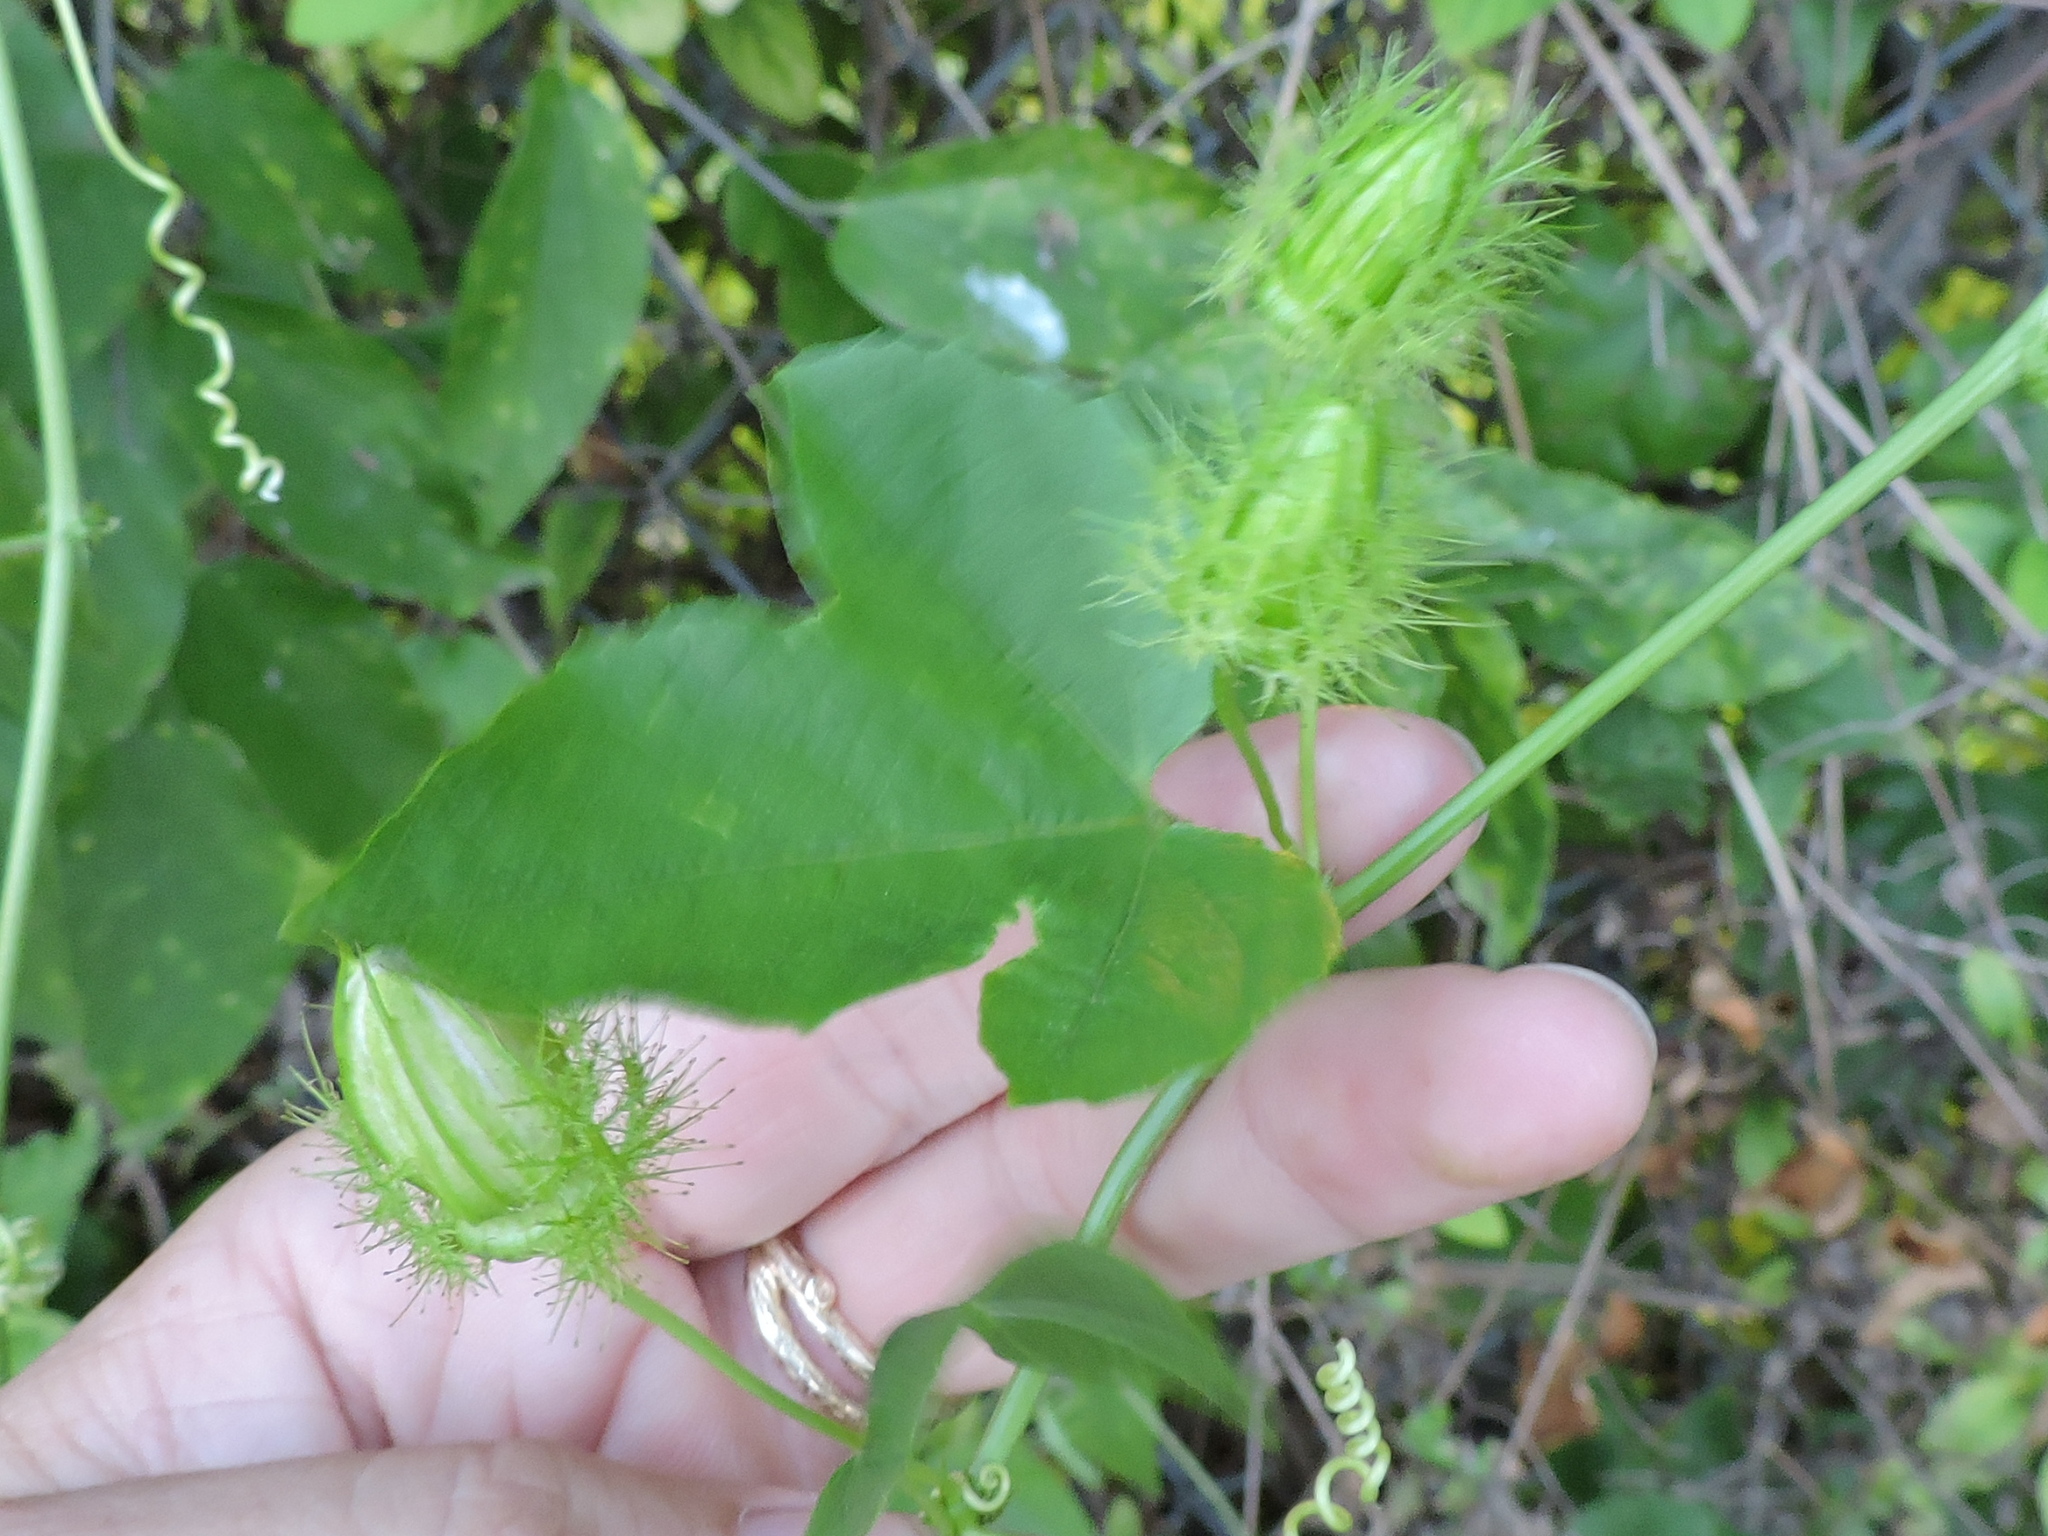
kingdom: Plantae
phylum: Tracheophyta
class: Magnoliopsida
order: Malpighiales
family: Passifloraceae
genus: Passiflora
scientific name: Passiflora foetida
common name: Fetid passionflower
